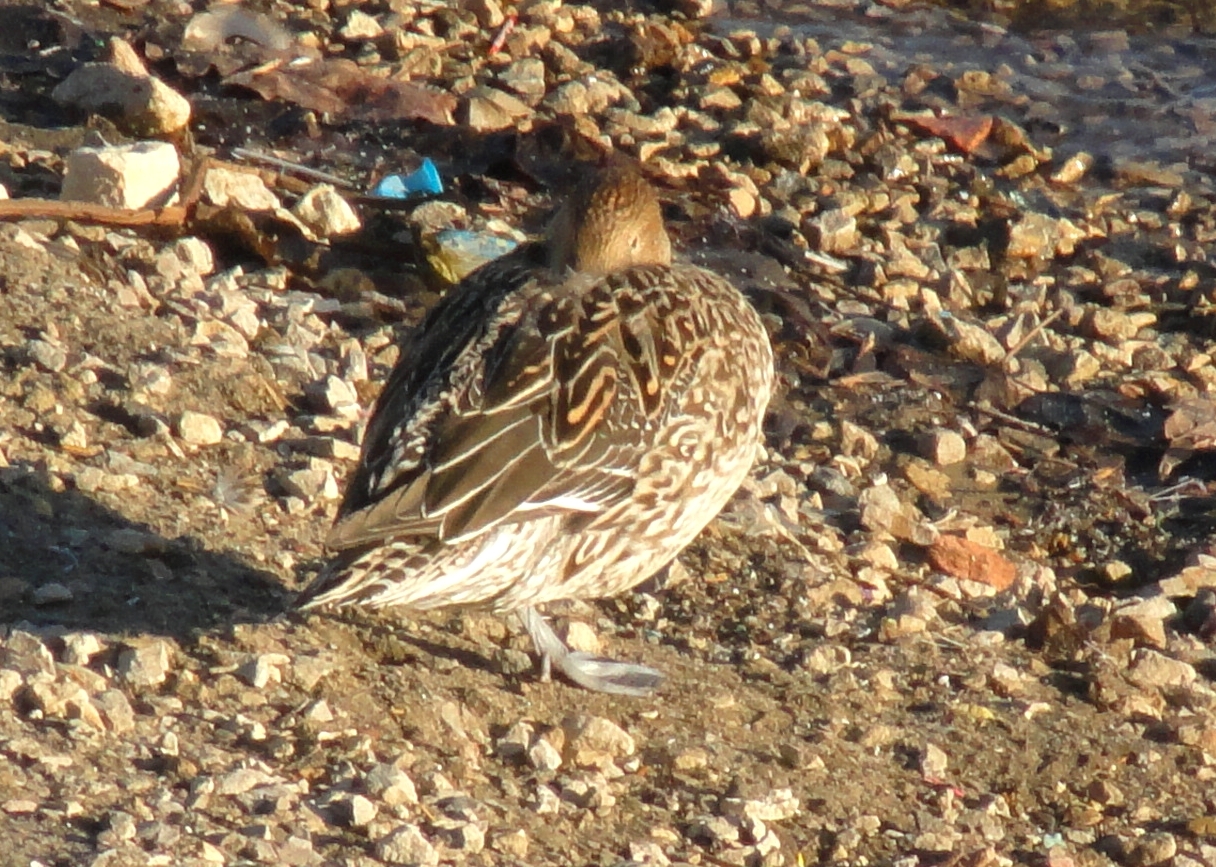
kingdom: Animalia
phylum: Chordata
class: Aves
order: Anseriformes
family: Anatidae
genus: Anas
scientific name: Anas acuta
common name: Northern pintail
